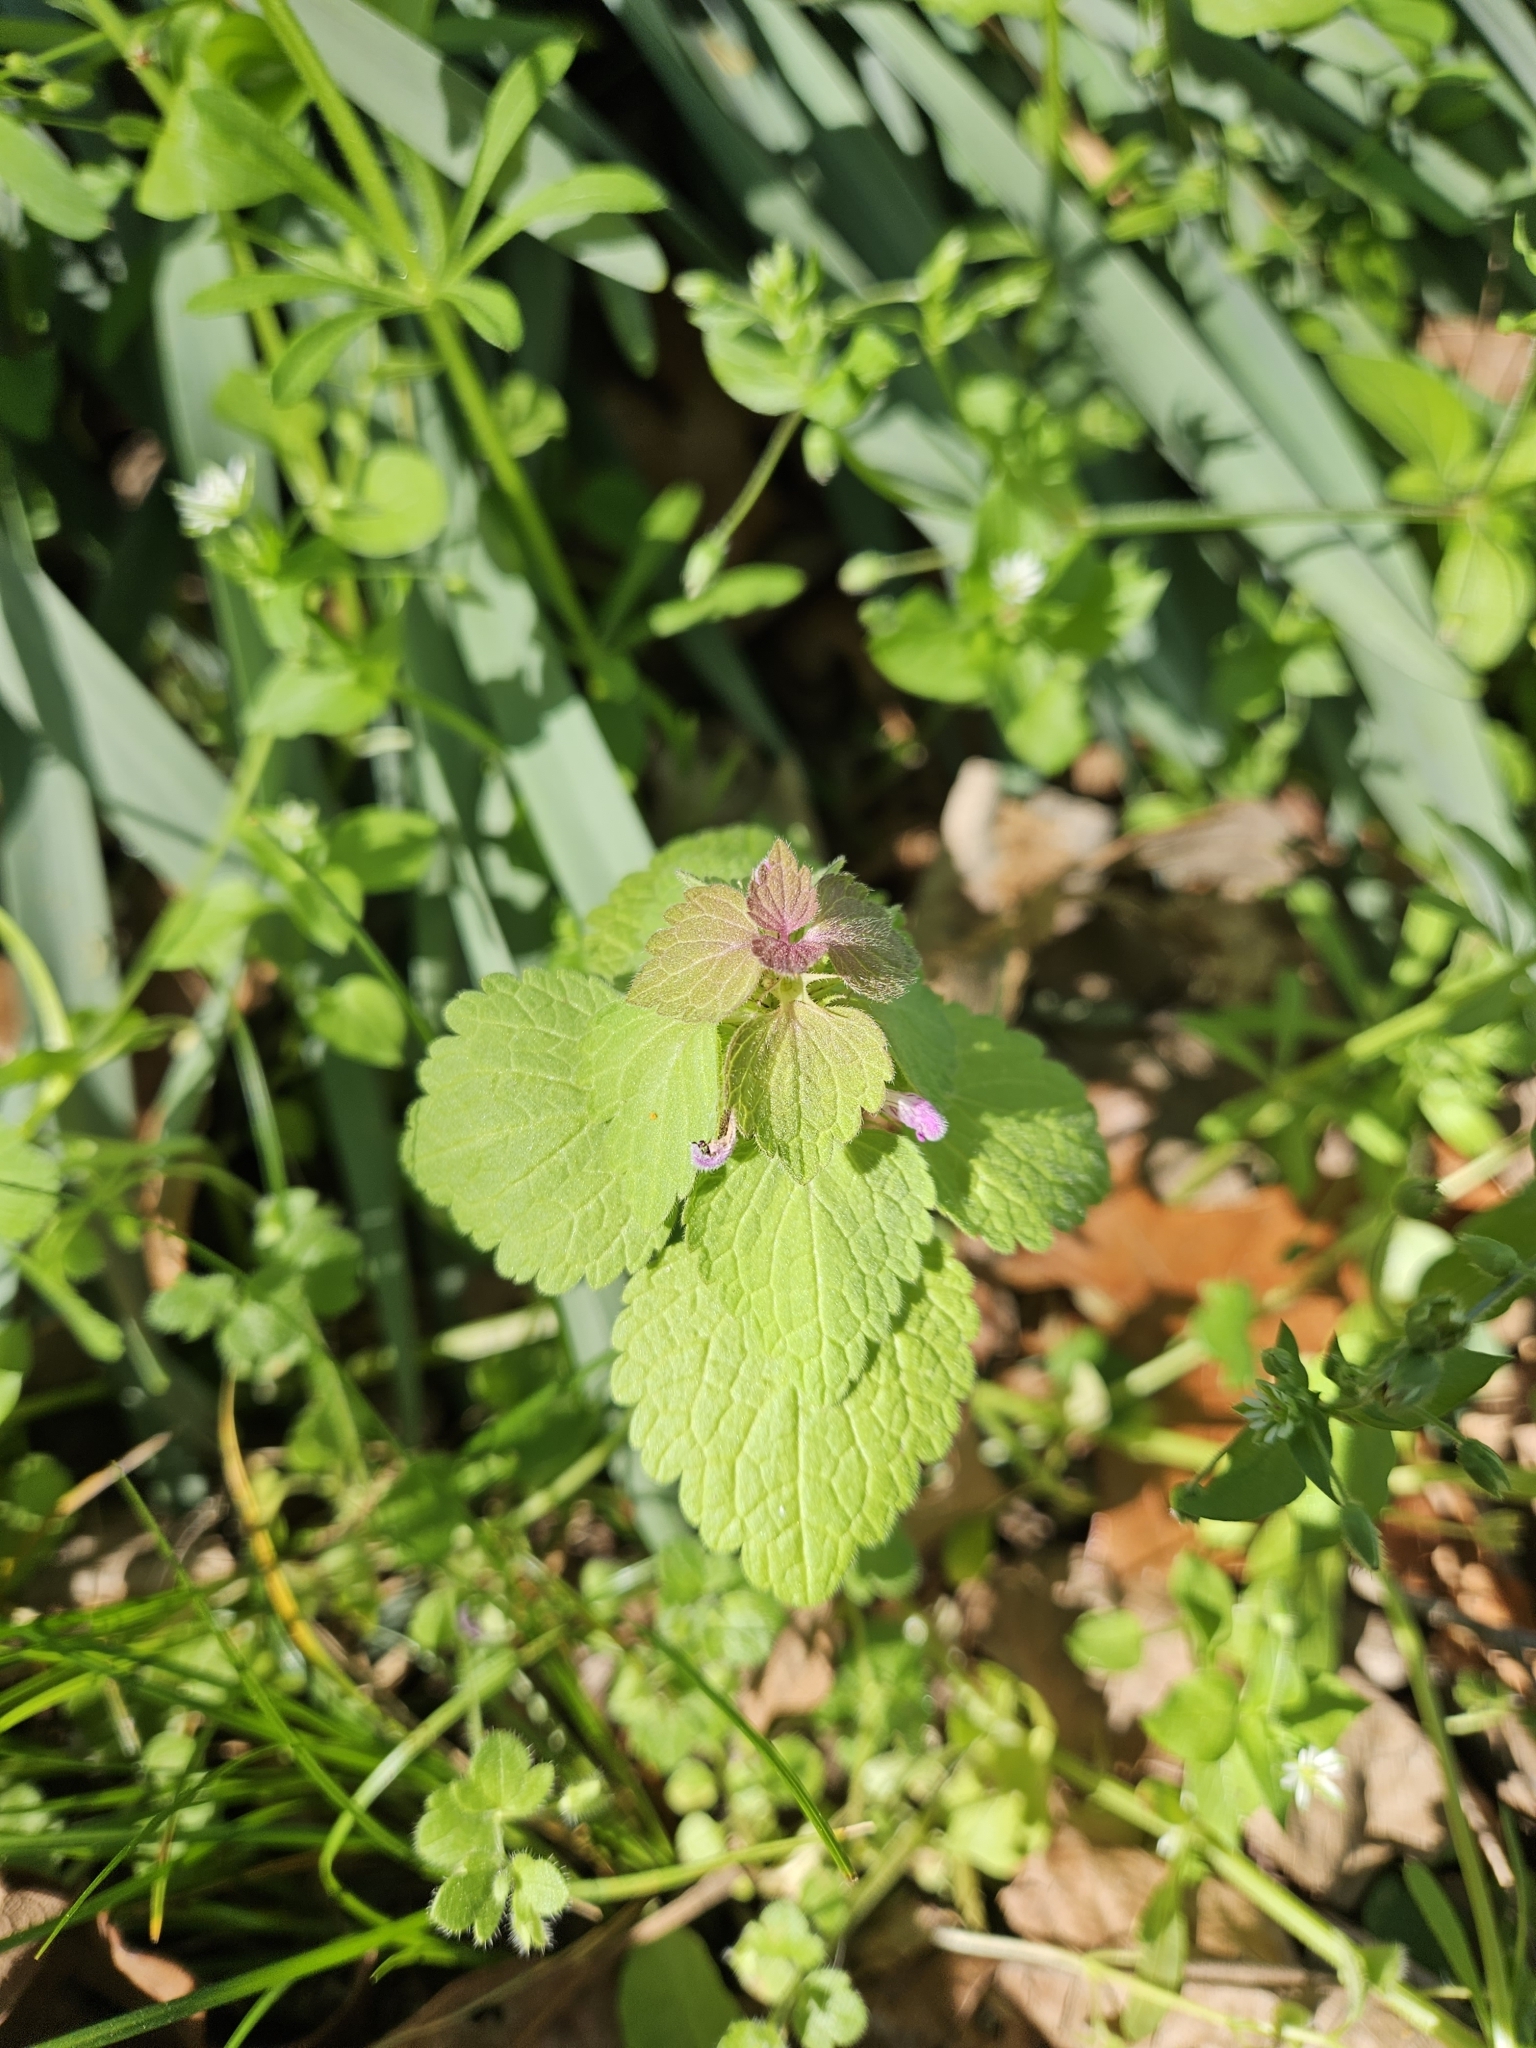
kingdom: Plantae
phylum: Tracheophyta
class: Magnoliopsida
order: Lamiales
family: Lamiaceae
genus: Lamium
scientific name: Lamium purpureum
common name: Red dead-nettle
